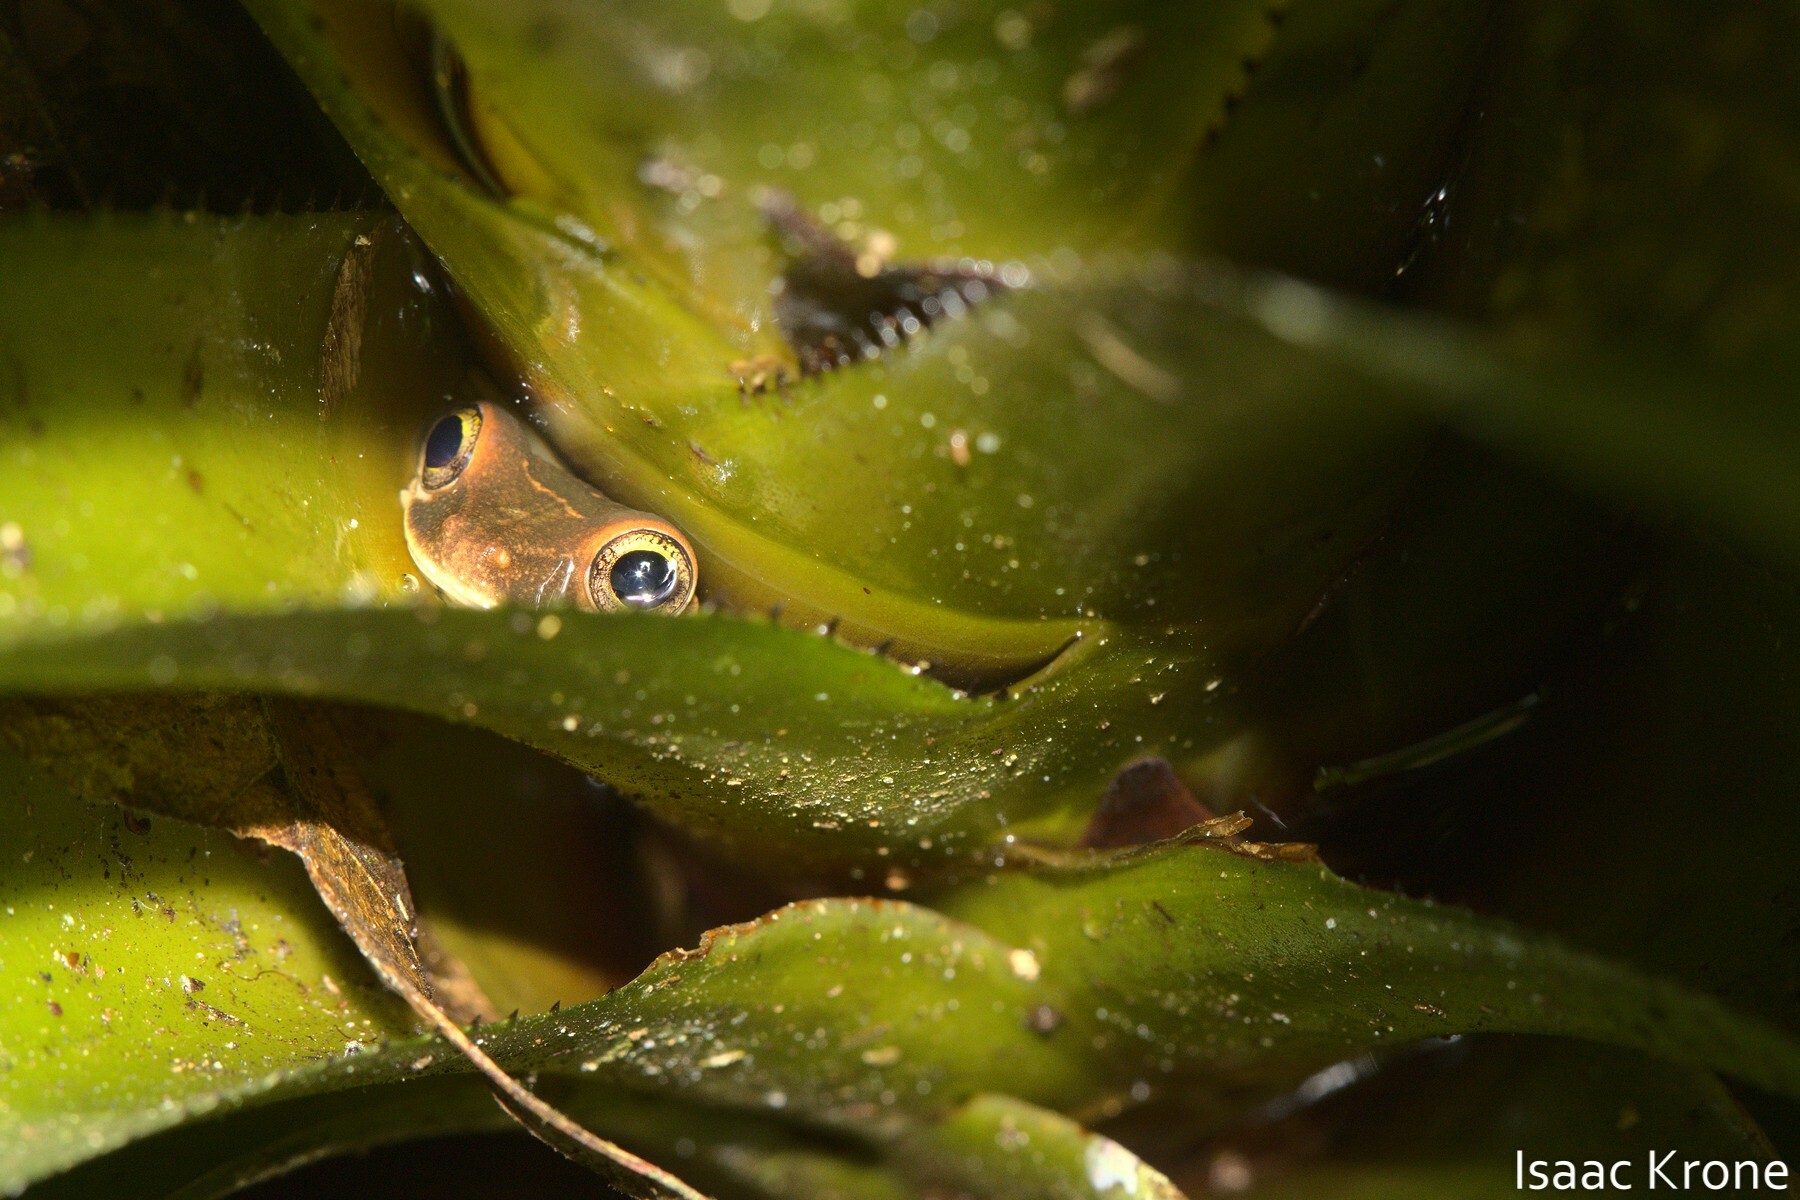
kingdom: Animalia
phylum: Chordata
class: Amphibia
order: Anura
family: Hylidae
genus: Osteocephalus
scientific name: Osteocephalus deridens
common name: Funny slender-legged treefrog
